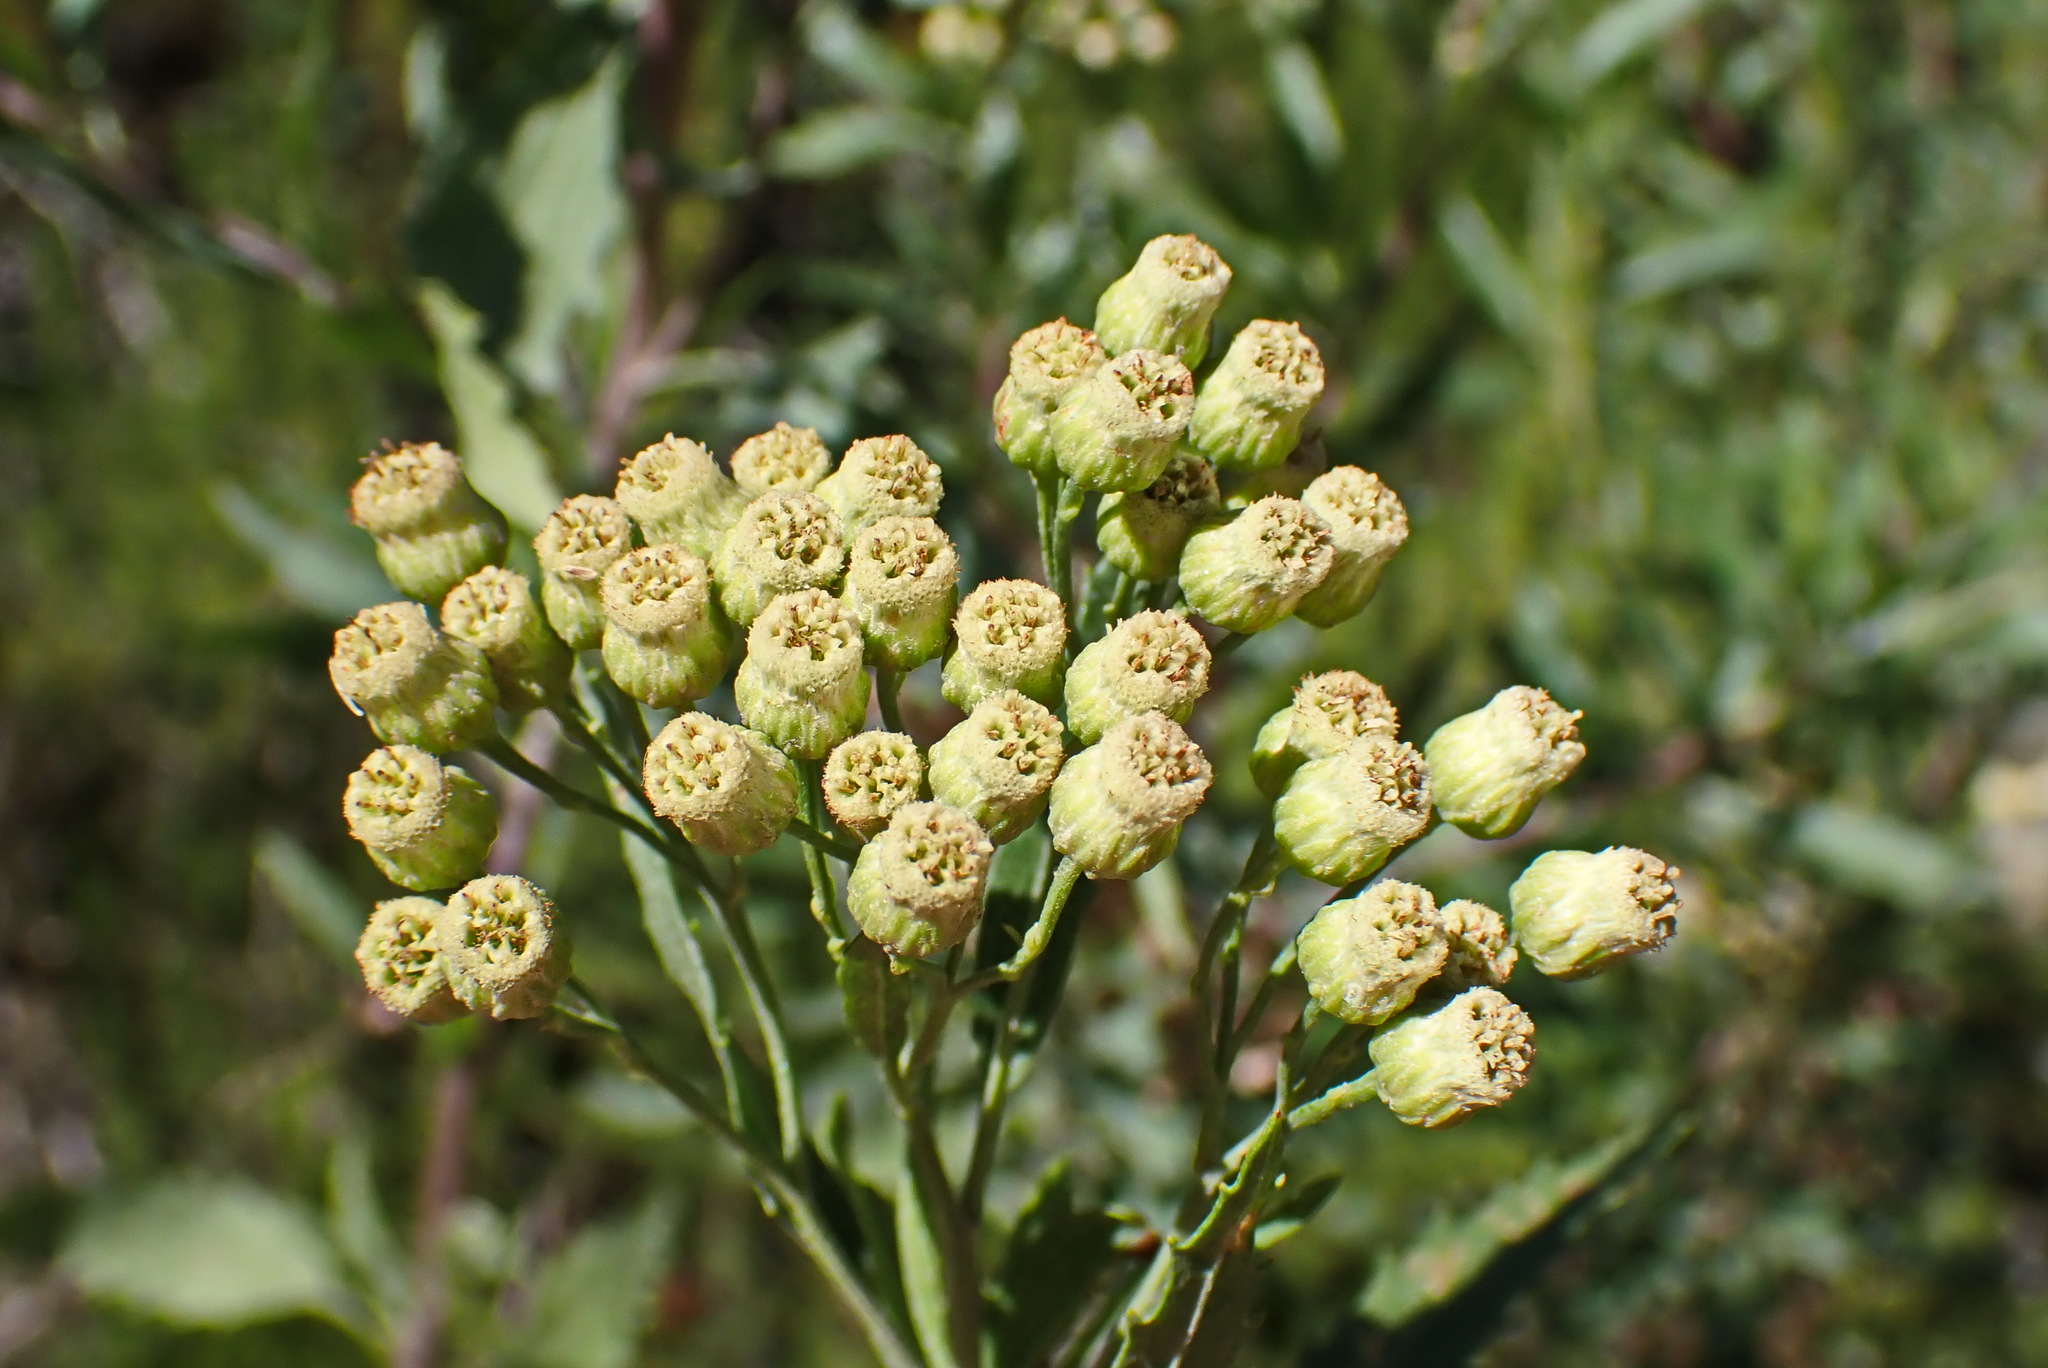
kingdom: Plantae
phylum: Tracheophyta
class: Magnoliopsida
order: Asterales
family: Asteraceae
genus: Nidorella
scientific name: Nidorella ivifolia
